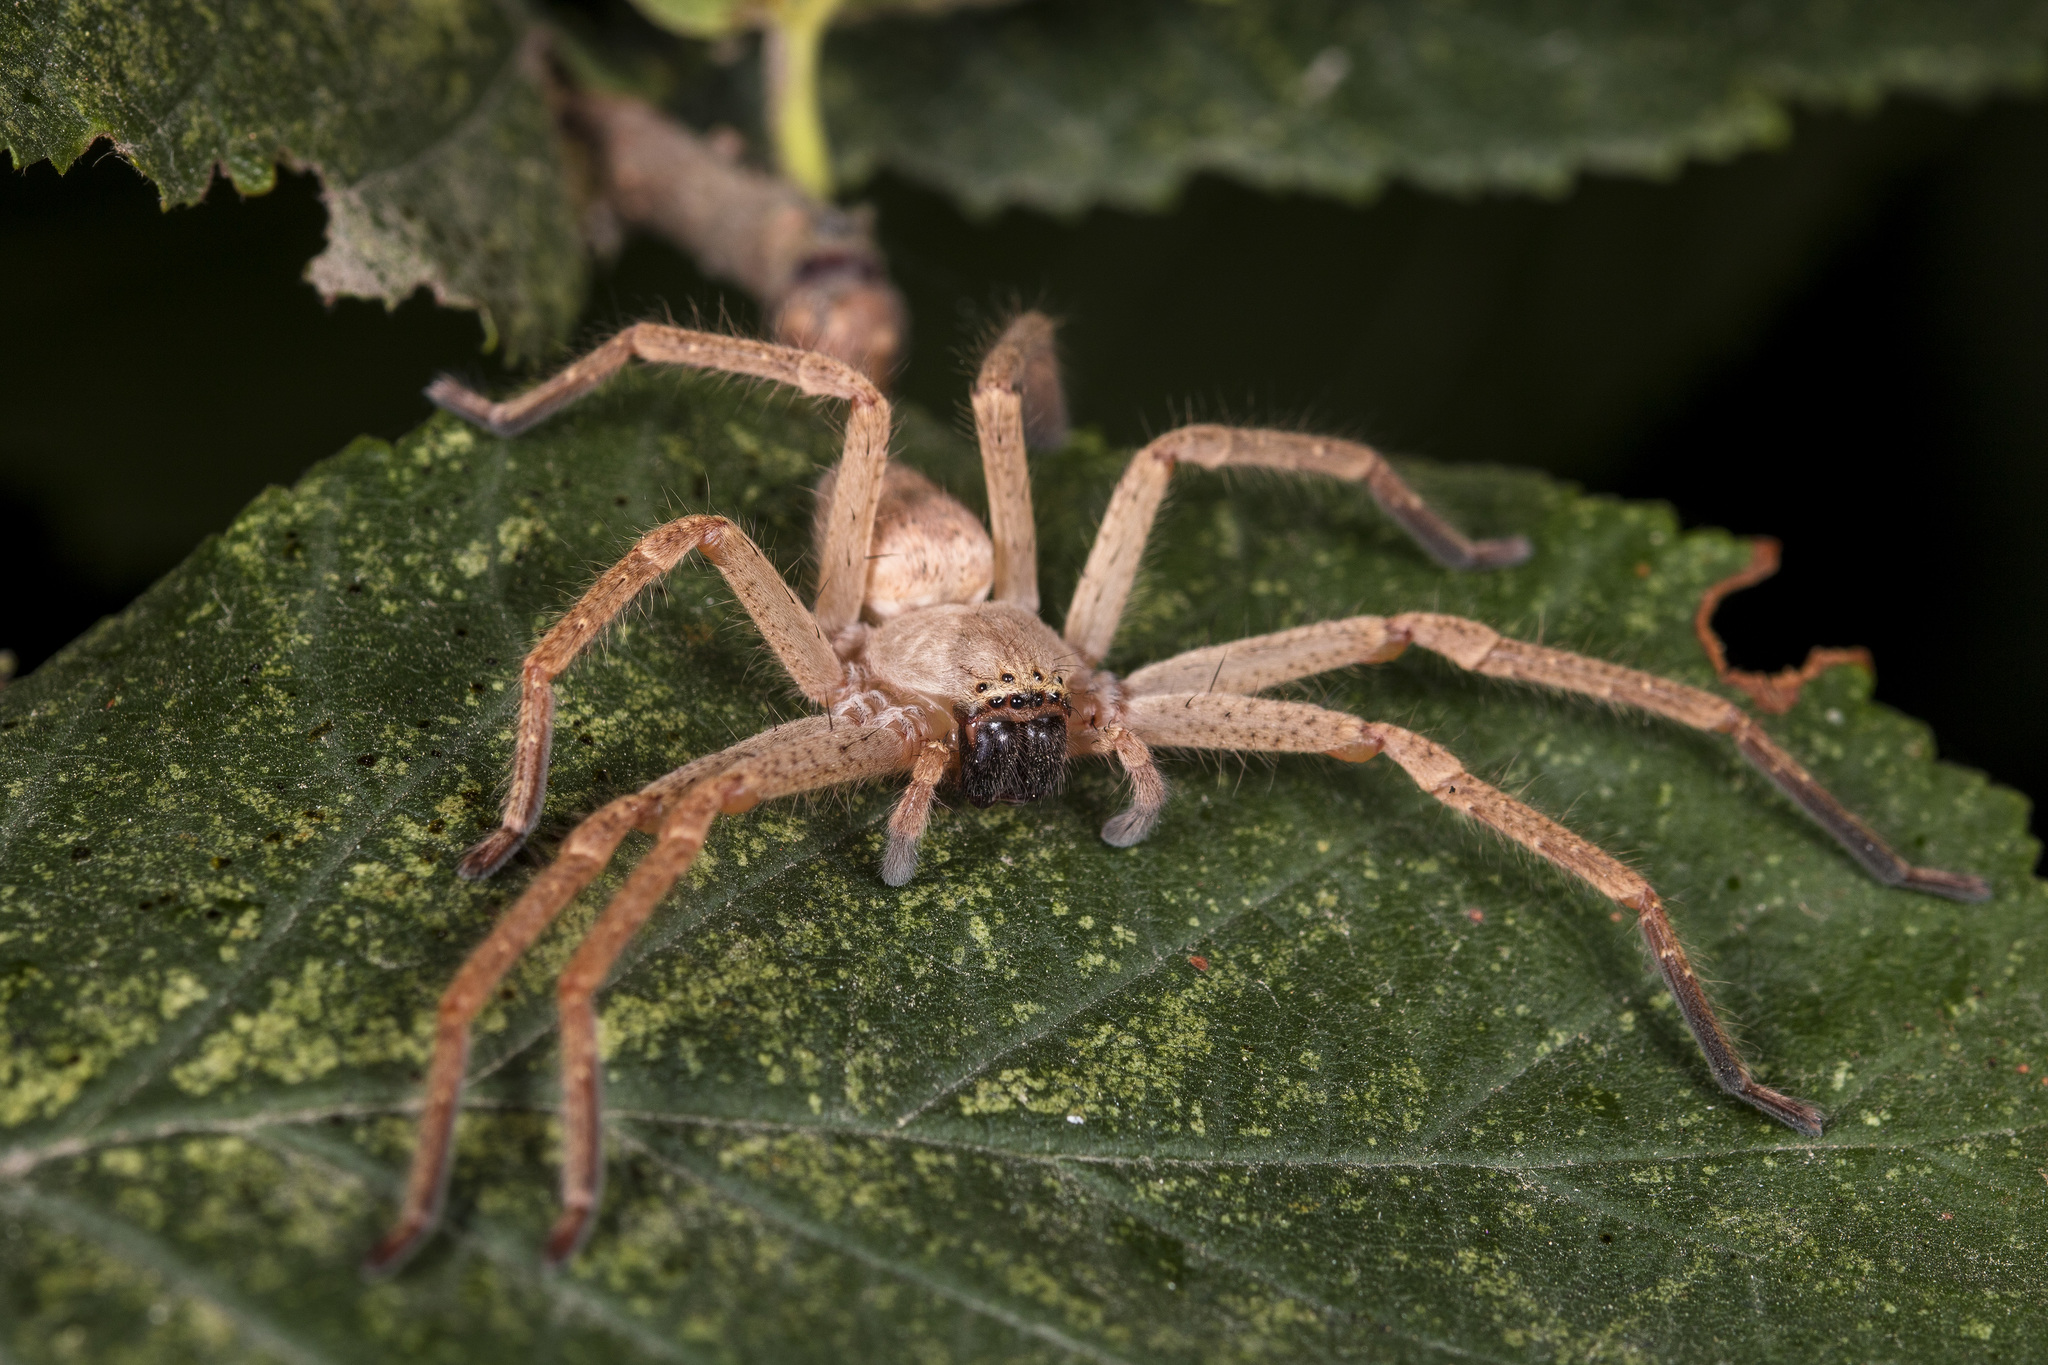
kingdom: Animalia
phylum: Arthropoda
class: Arachnida
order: Araneae
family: Sparassidae
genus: Olios
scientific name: Olios sericeus
